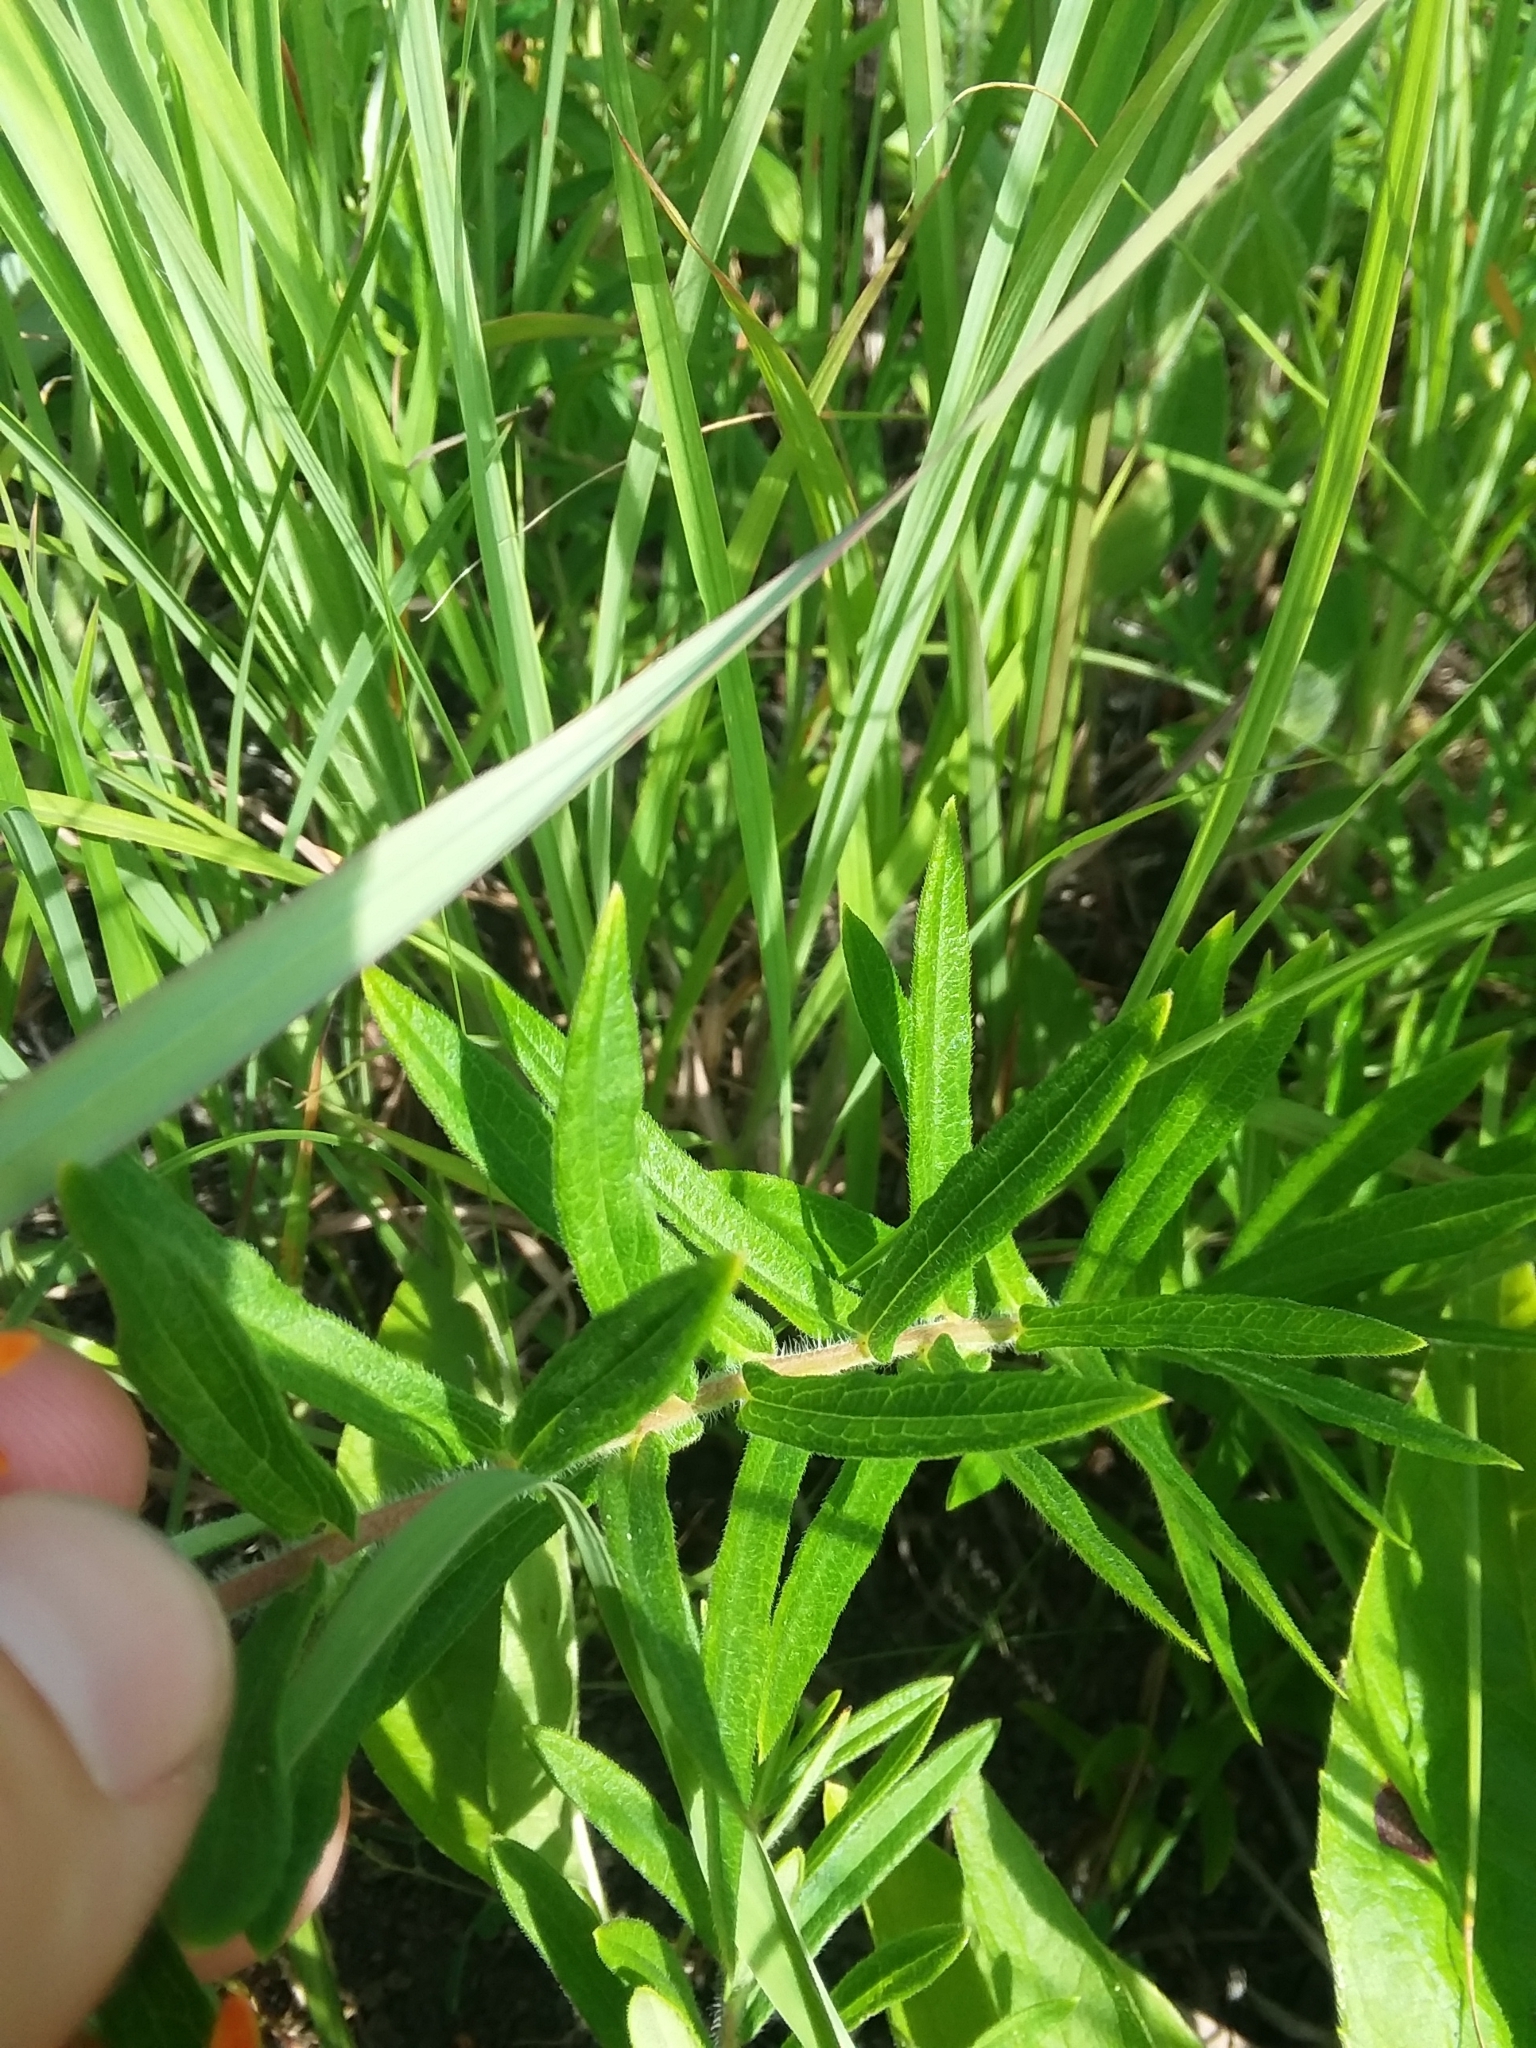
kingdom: Plantae
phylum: Tracheophyta
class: Magnoliopsida
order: Gentianales
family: Apocynaceae
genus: Asclepias
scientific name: Asclepias tuberosa
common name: Butterfly milkweed
